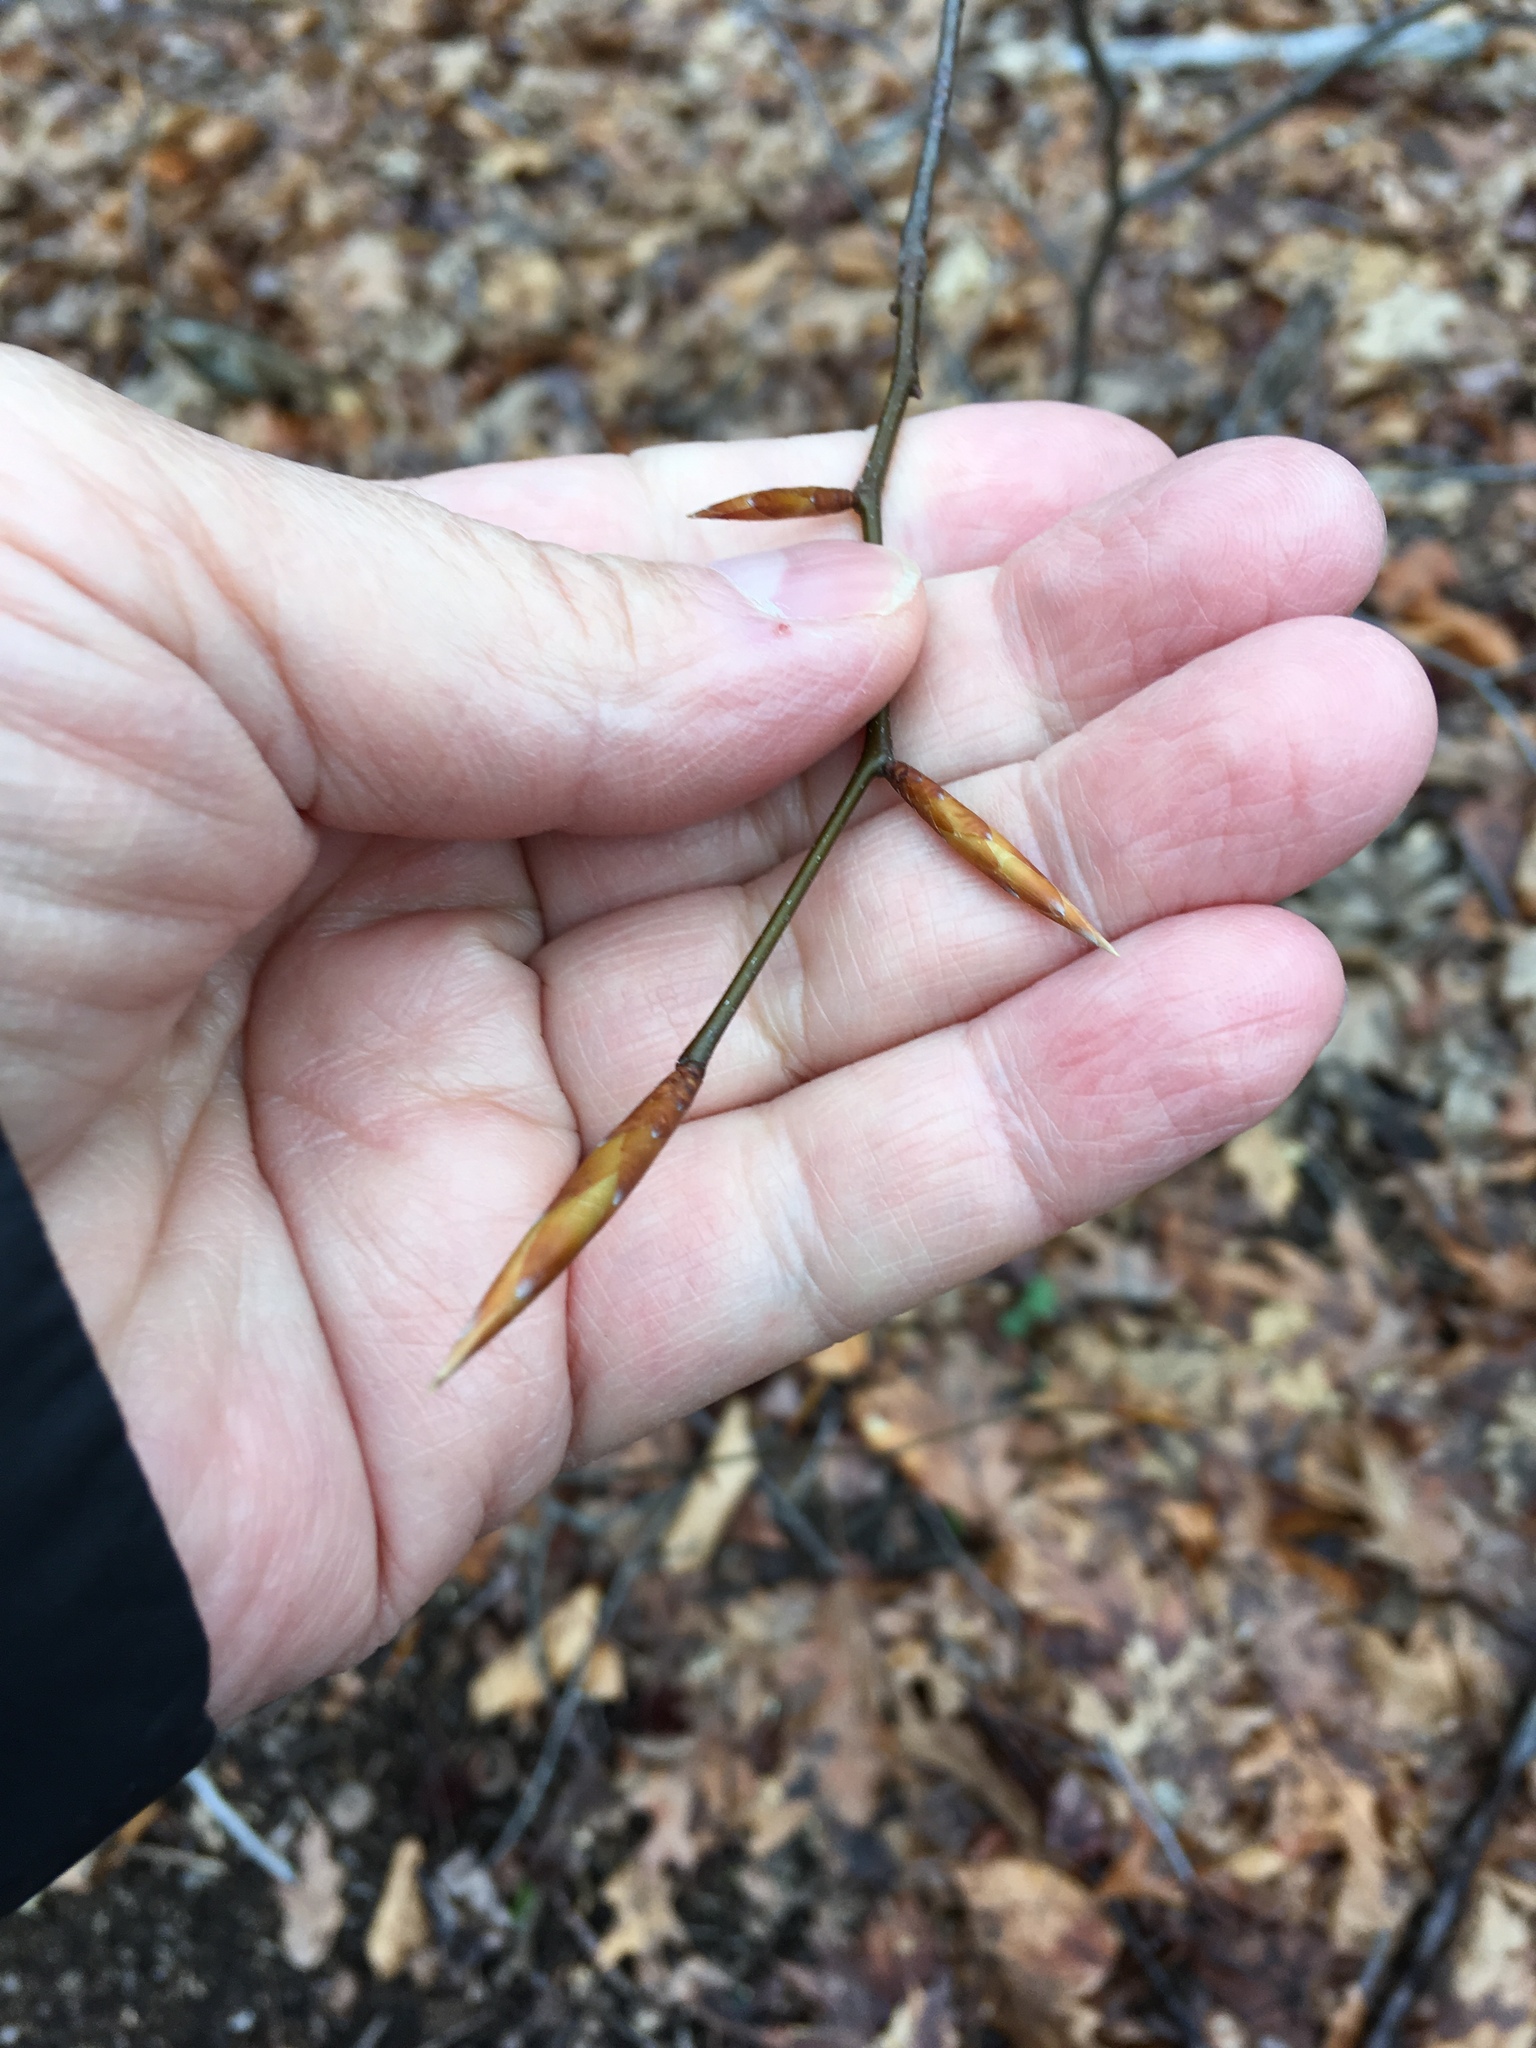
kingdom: Plantae
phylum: Tracheophyta
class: Magnoliopsida
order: Fagales
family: Fagaceae
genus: Fagus
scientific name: Fagus grandifolia
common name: American beech
